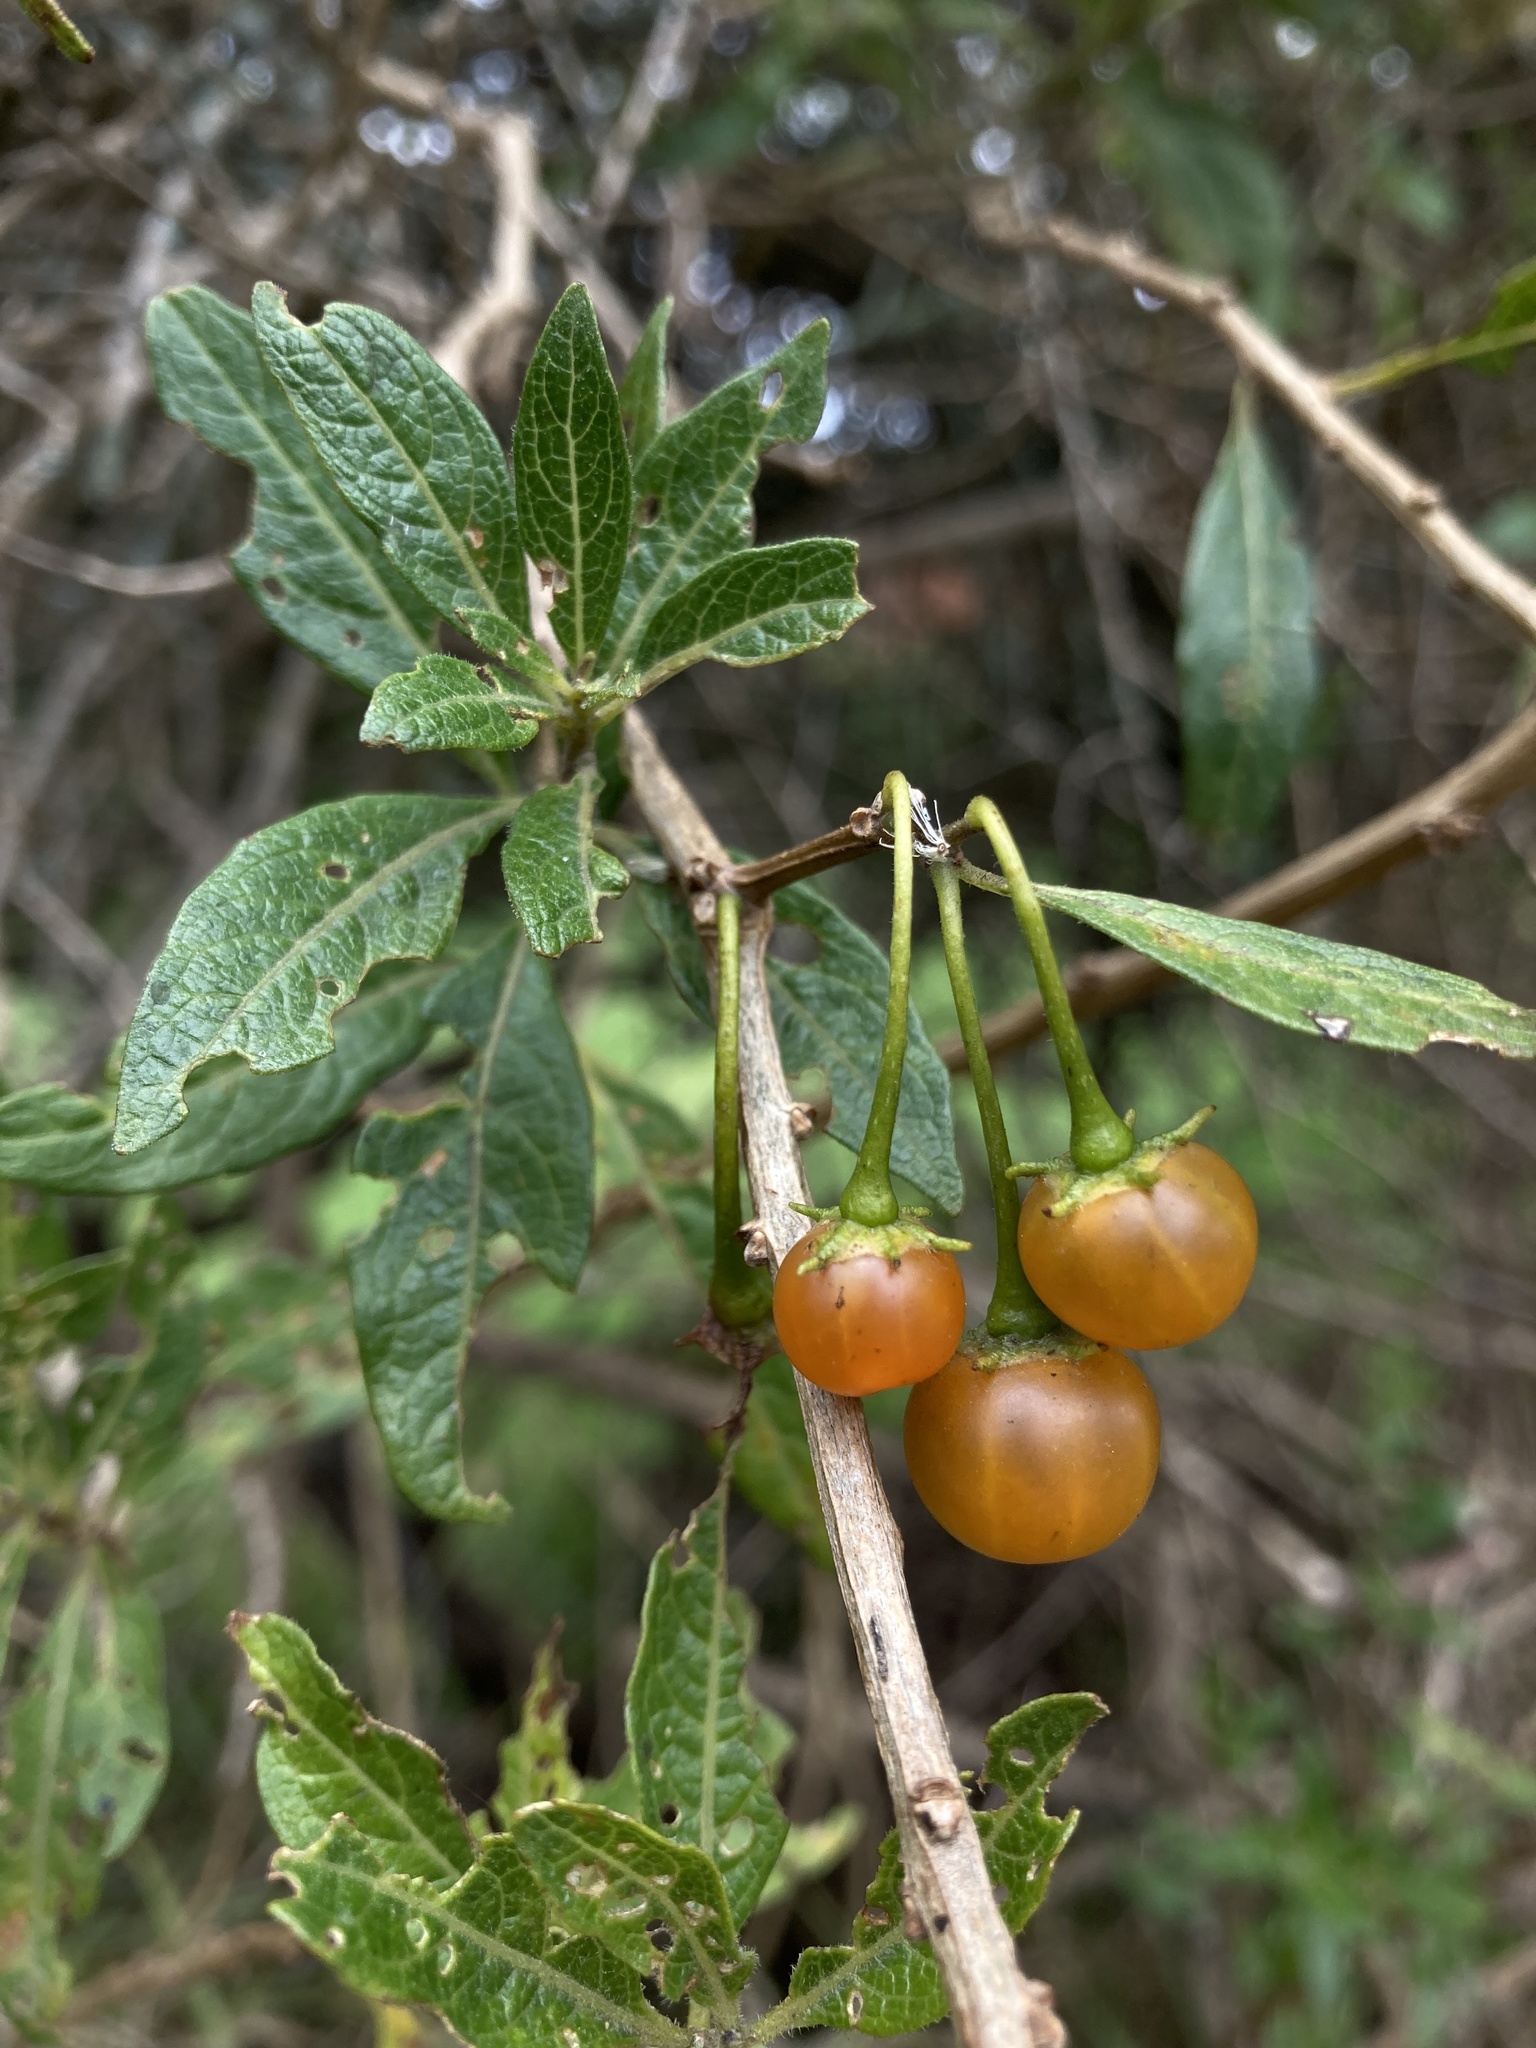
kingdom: Plantae
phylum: Tracheophyta
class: Magnoliopsida
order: Solanales
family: Solanaceae
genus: Lycianthes
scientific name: Lycianthes lycioides
